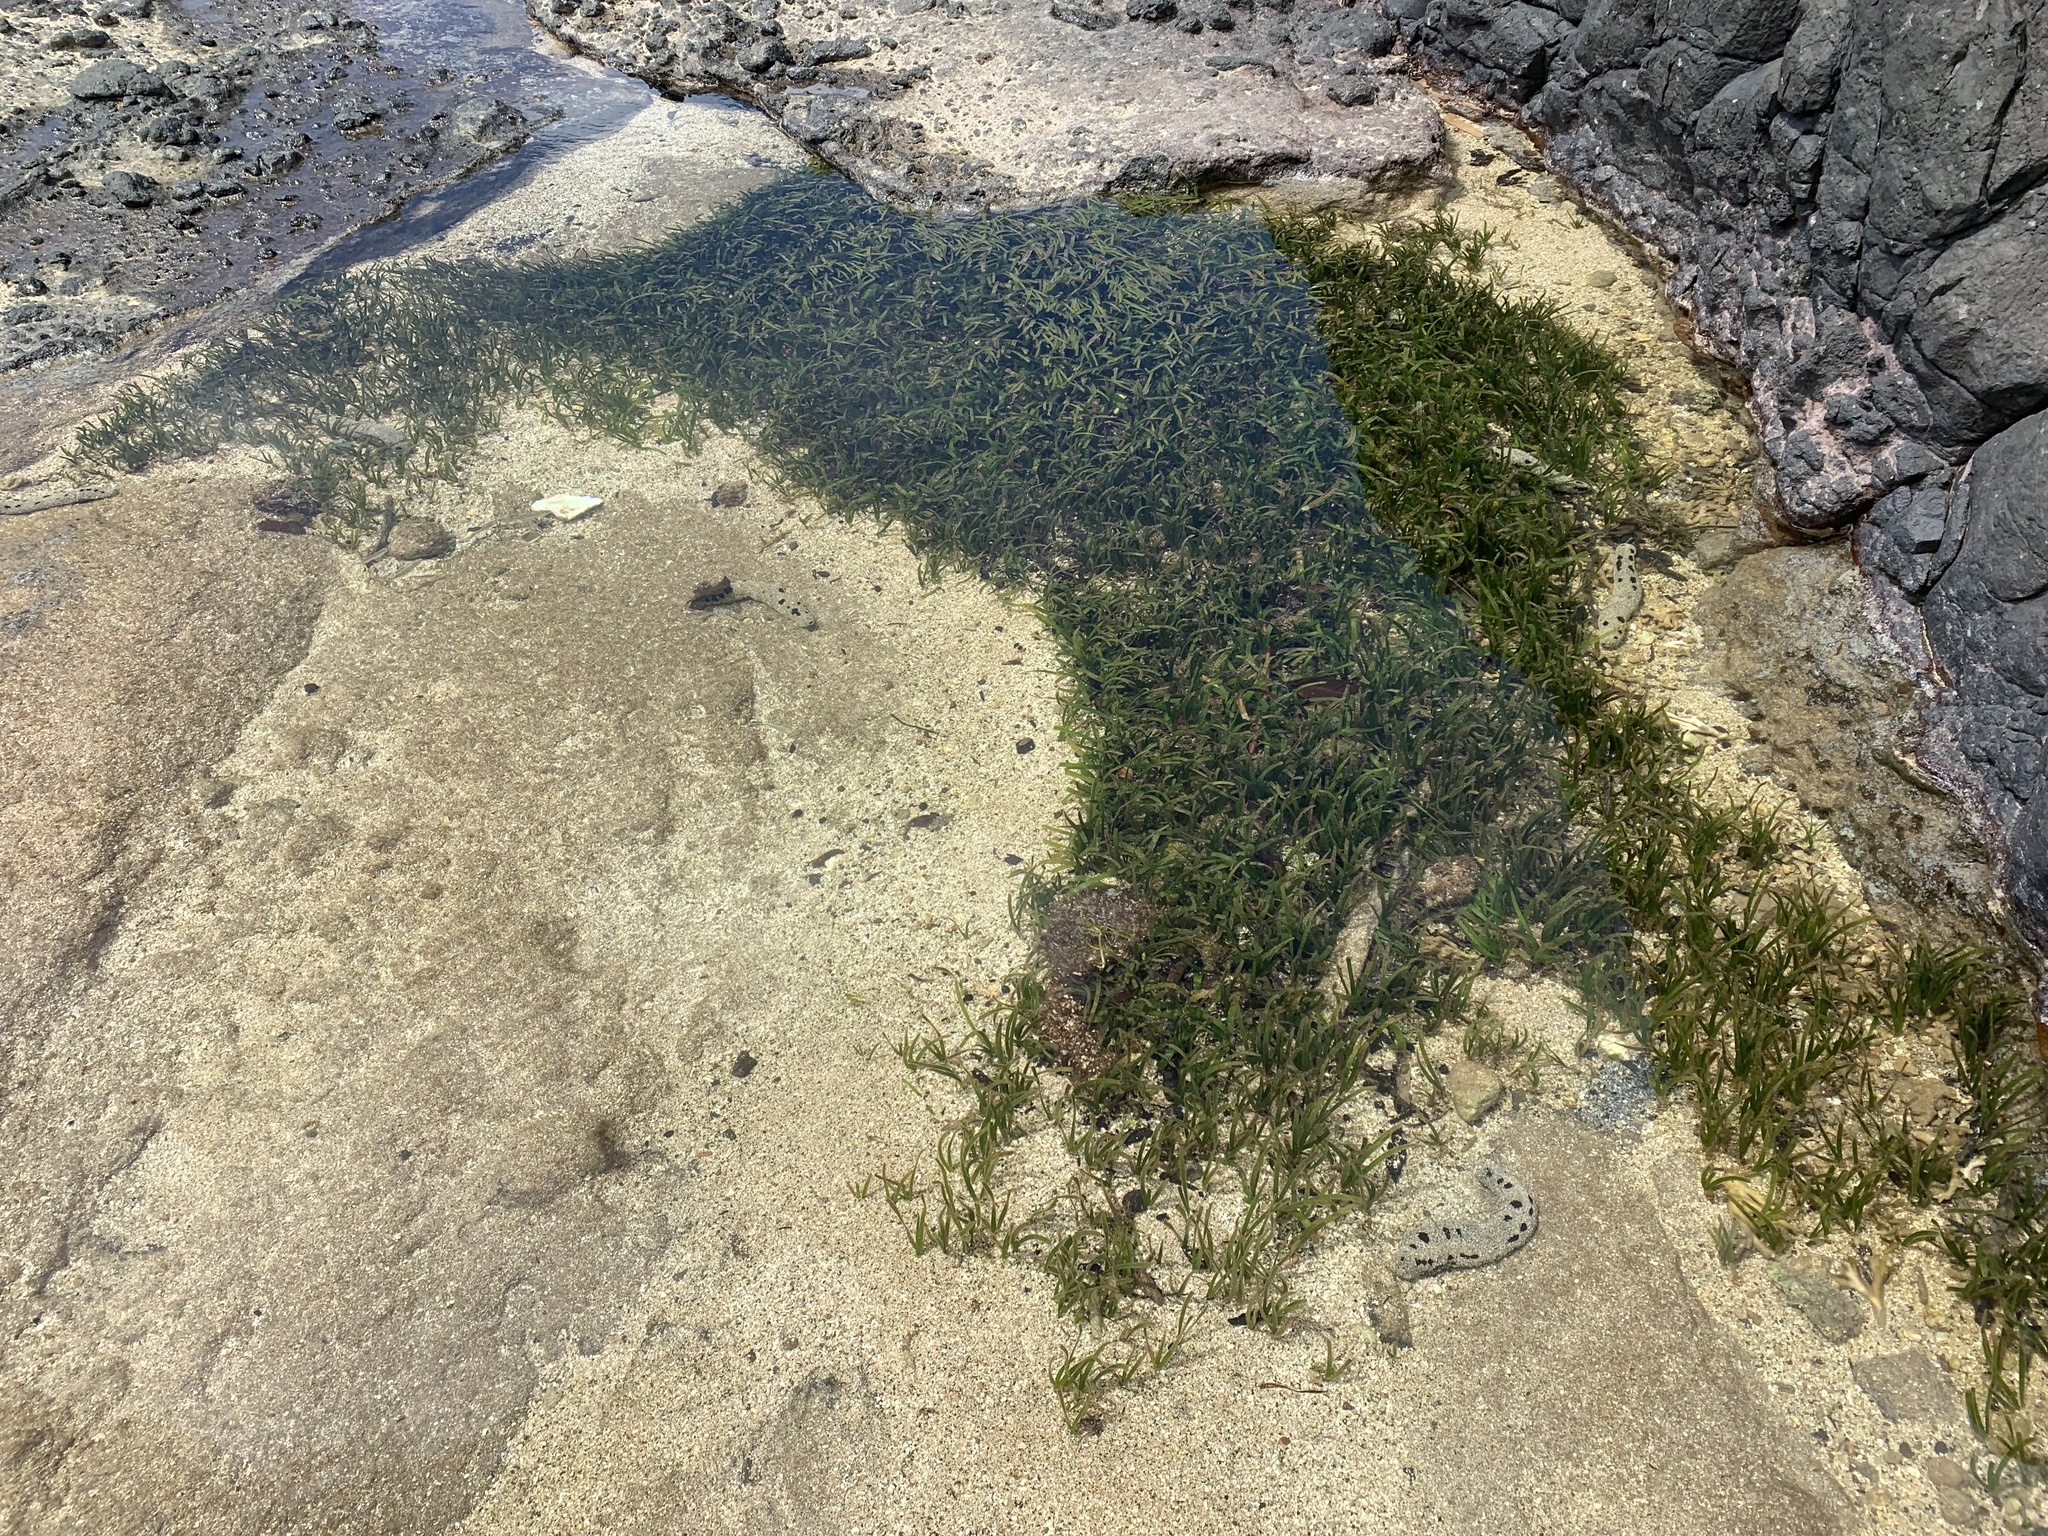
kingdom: Animalia
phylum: Echinodermata
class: Holothuroidea
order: Holothuriida
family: Holothuriidae
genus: Holothuria
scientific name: Holothuria atra
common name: Lollyfish
